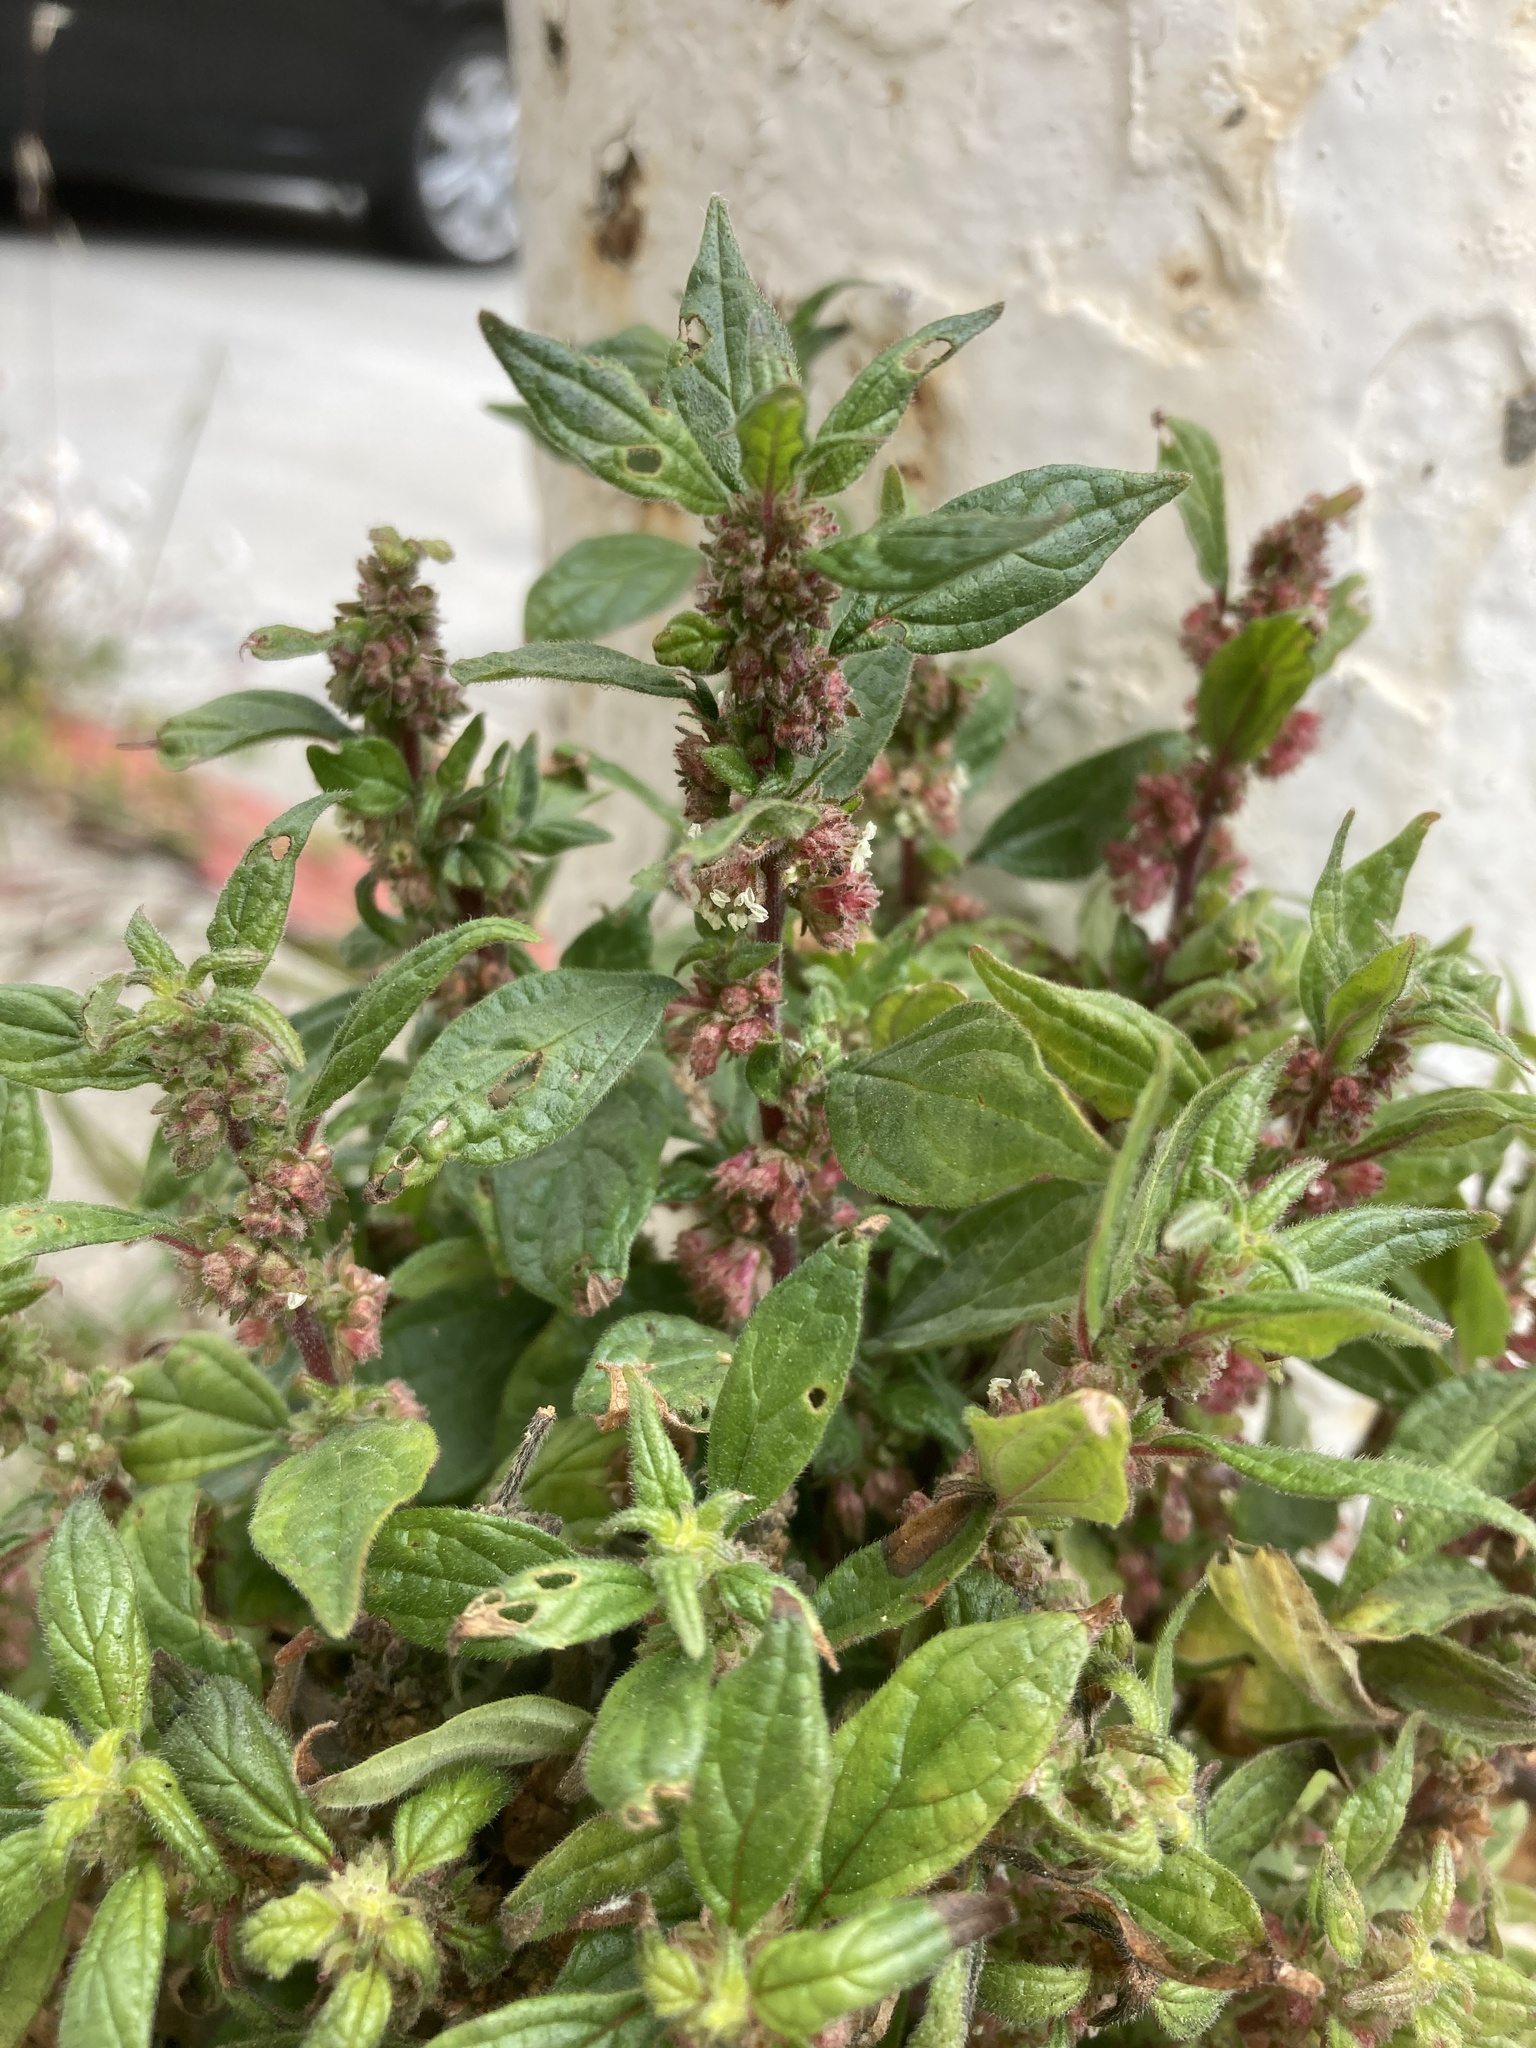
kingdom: Plantae
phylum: Tracheophyta
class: Magnoliopsida
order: Rosales
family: Urticaceae
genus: Parietaria
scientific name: Parietaria judaica
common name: Pellitory-of-the-wall
